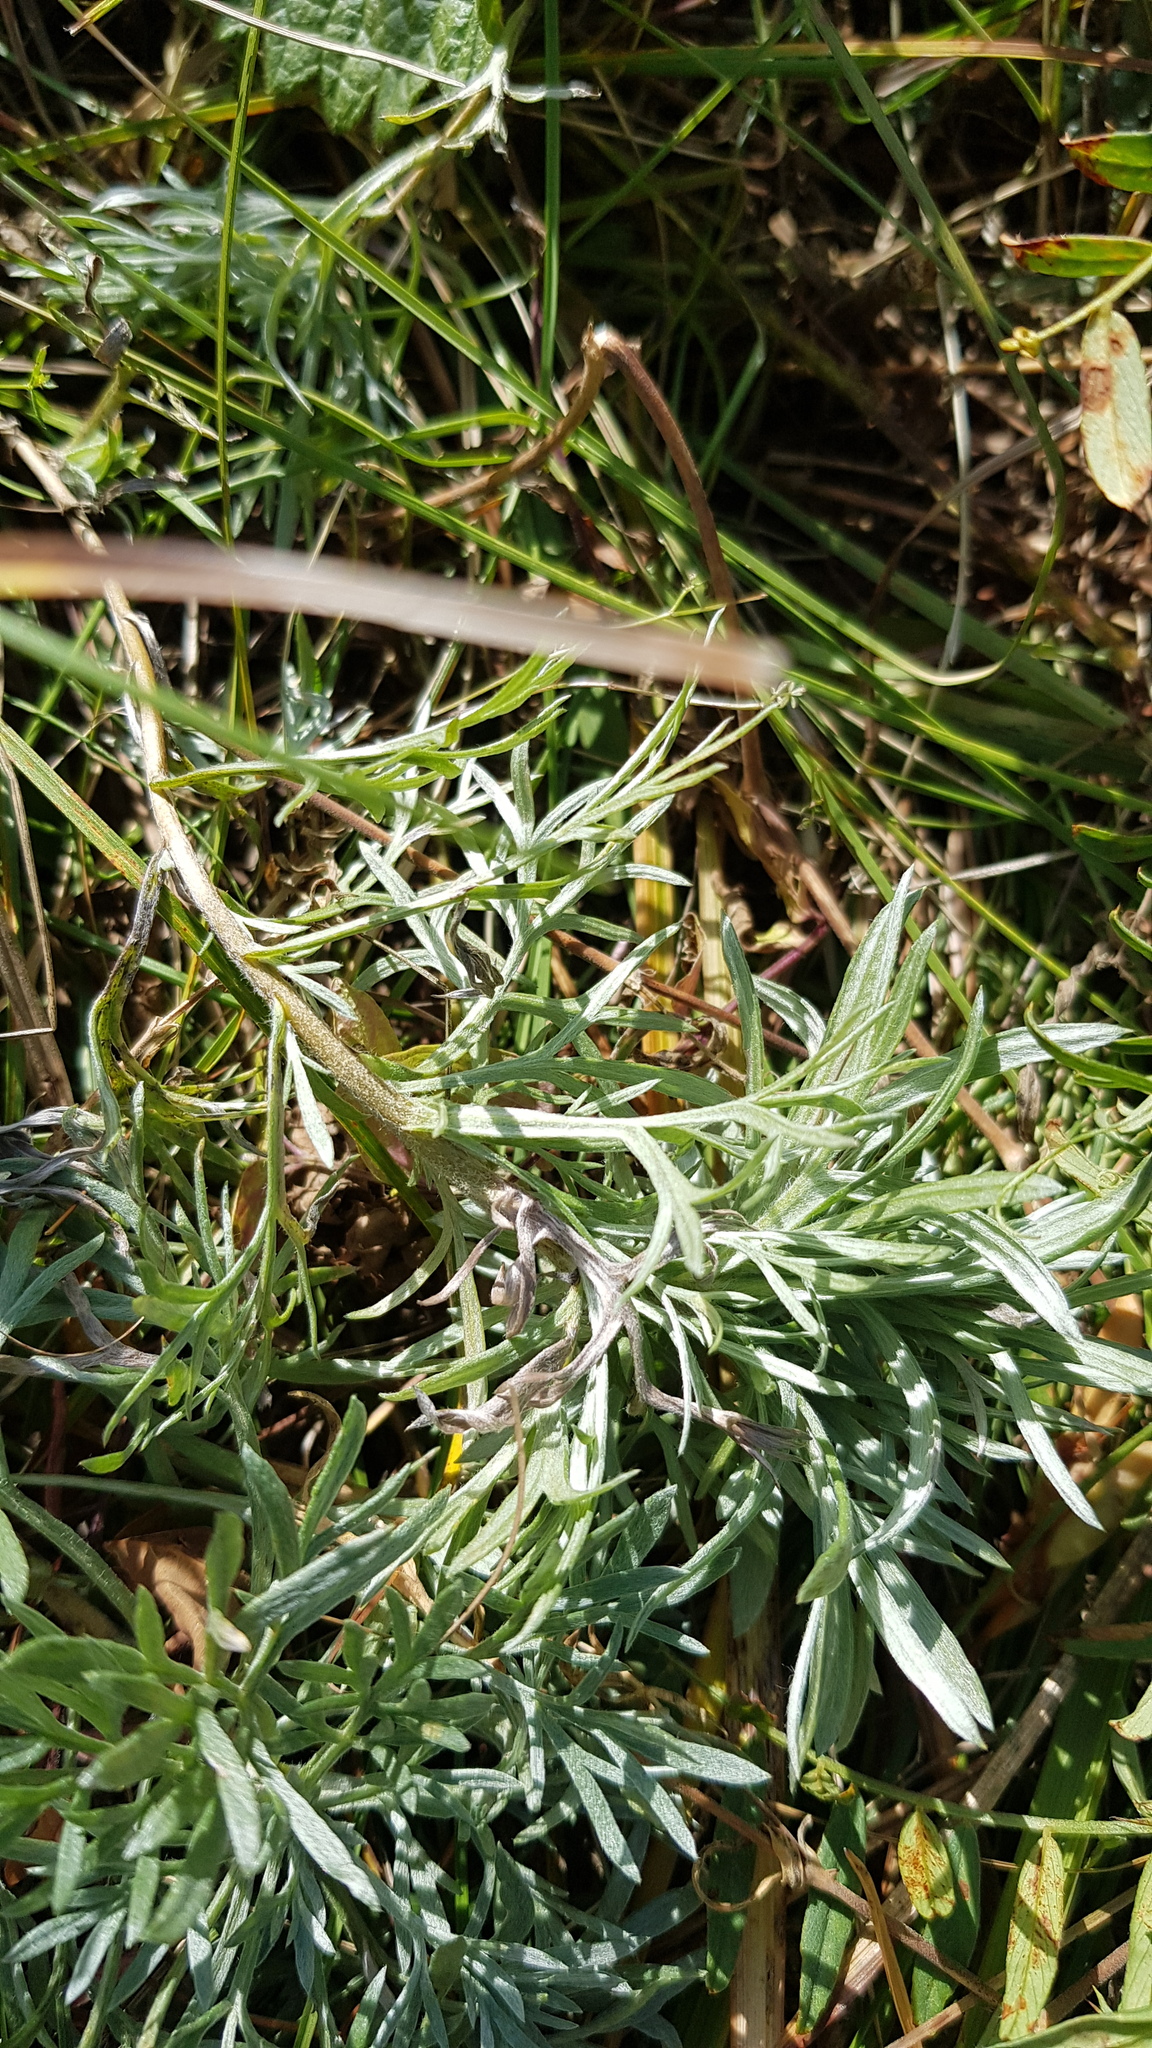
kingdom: Plantae
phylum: Tracheophyta
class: Magnoliopsida
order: Asterales
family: Asteraceae
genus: Artemisia
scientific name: Artemisia sericea
